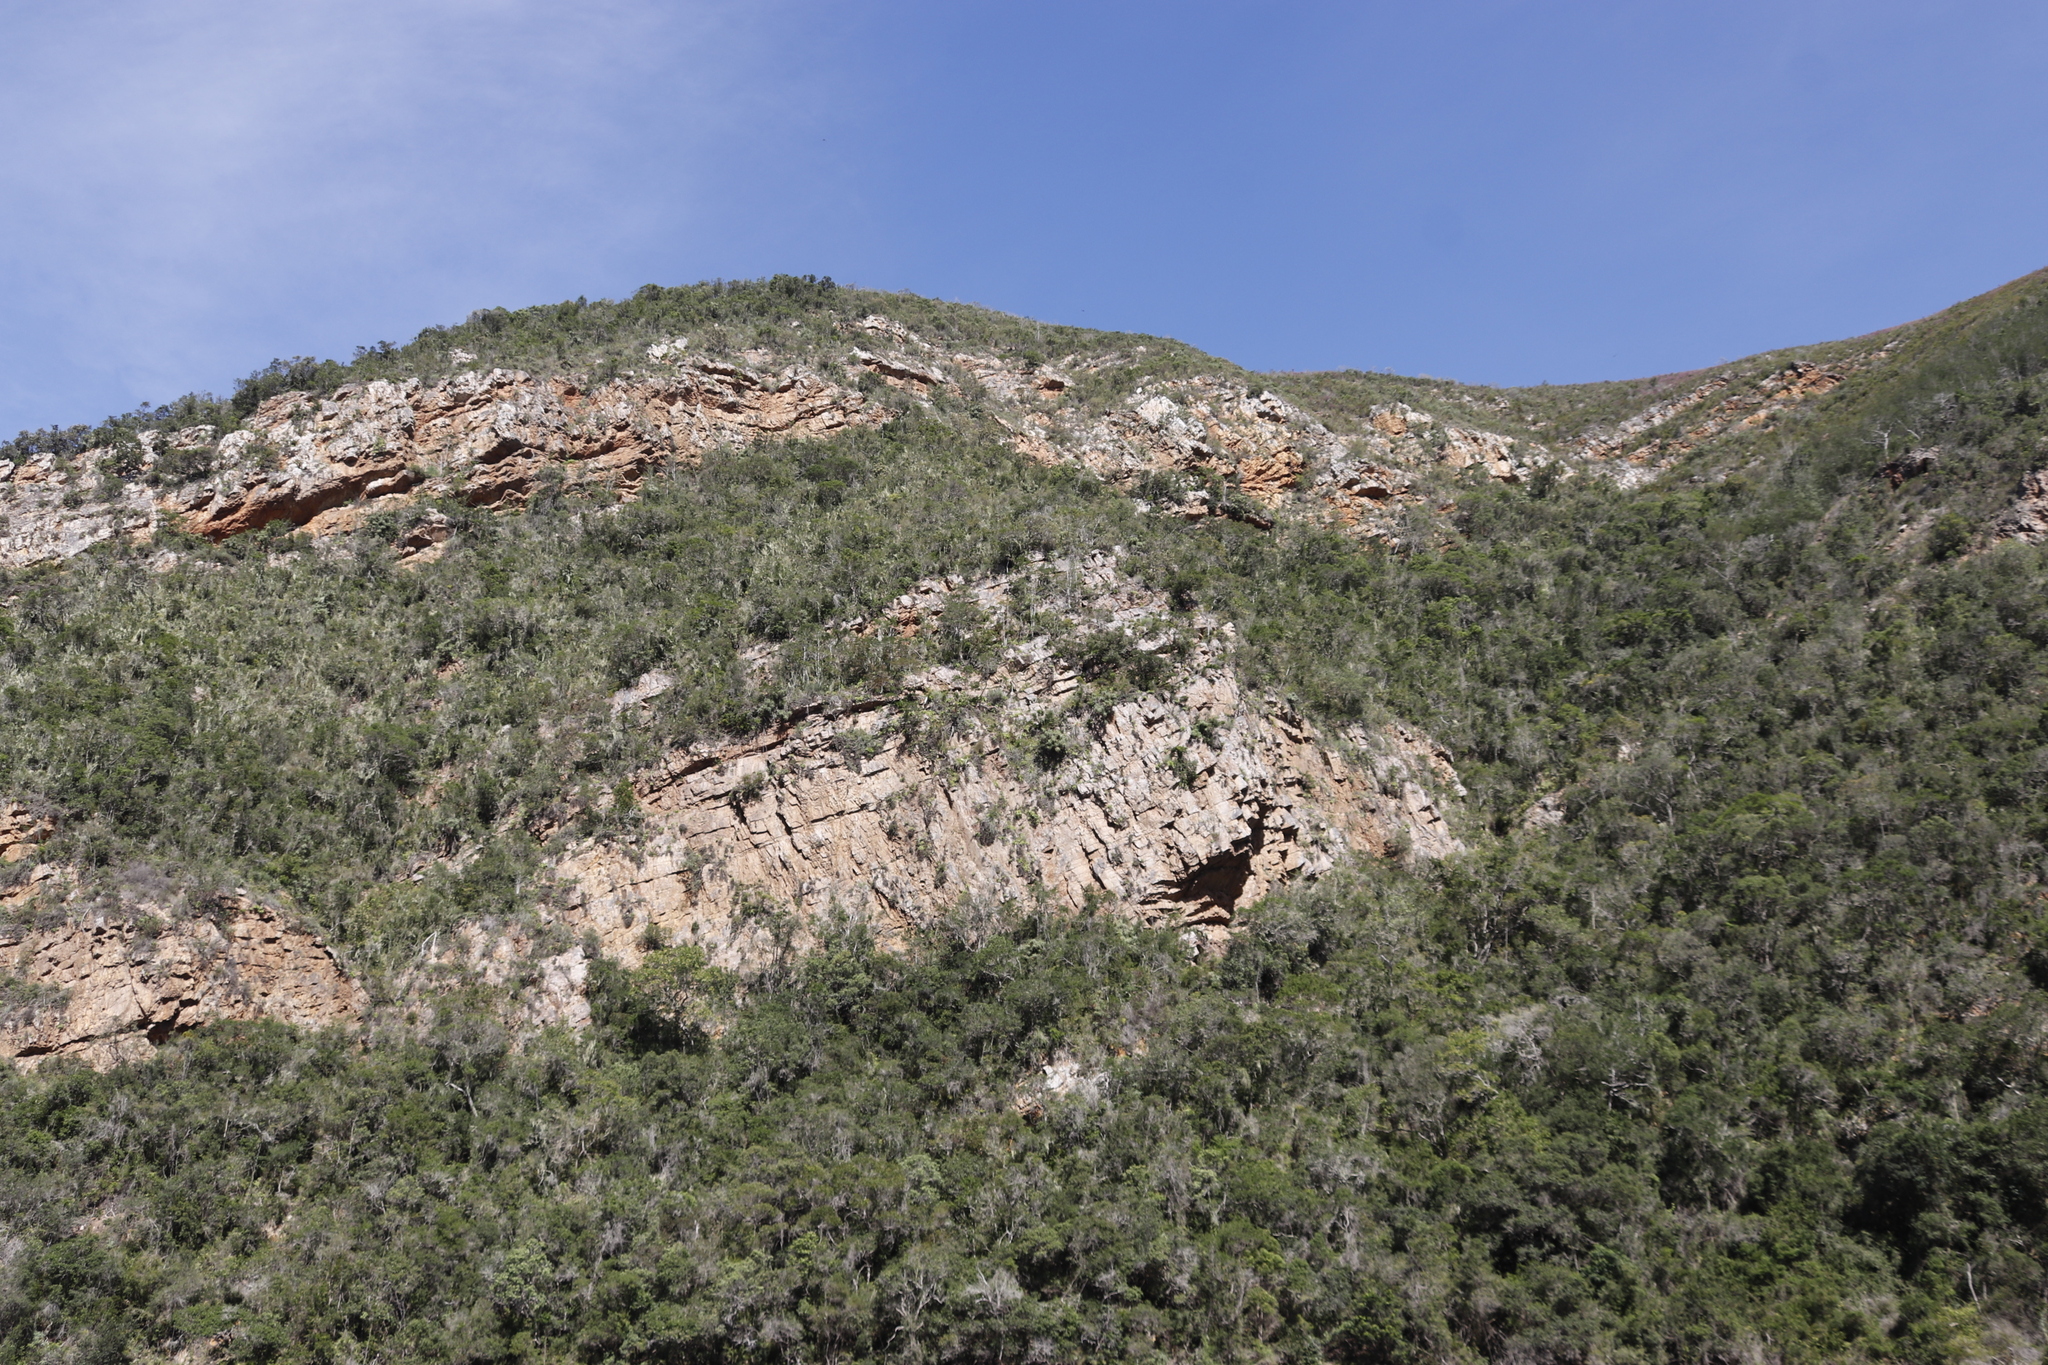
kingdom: Plantae
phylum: Tracheophyta
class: Liliopsida
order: Asparagales
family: Asphodelaceae
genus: Aloe
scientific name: Aloe arborescens
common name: Candelabra aloe
